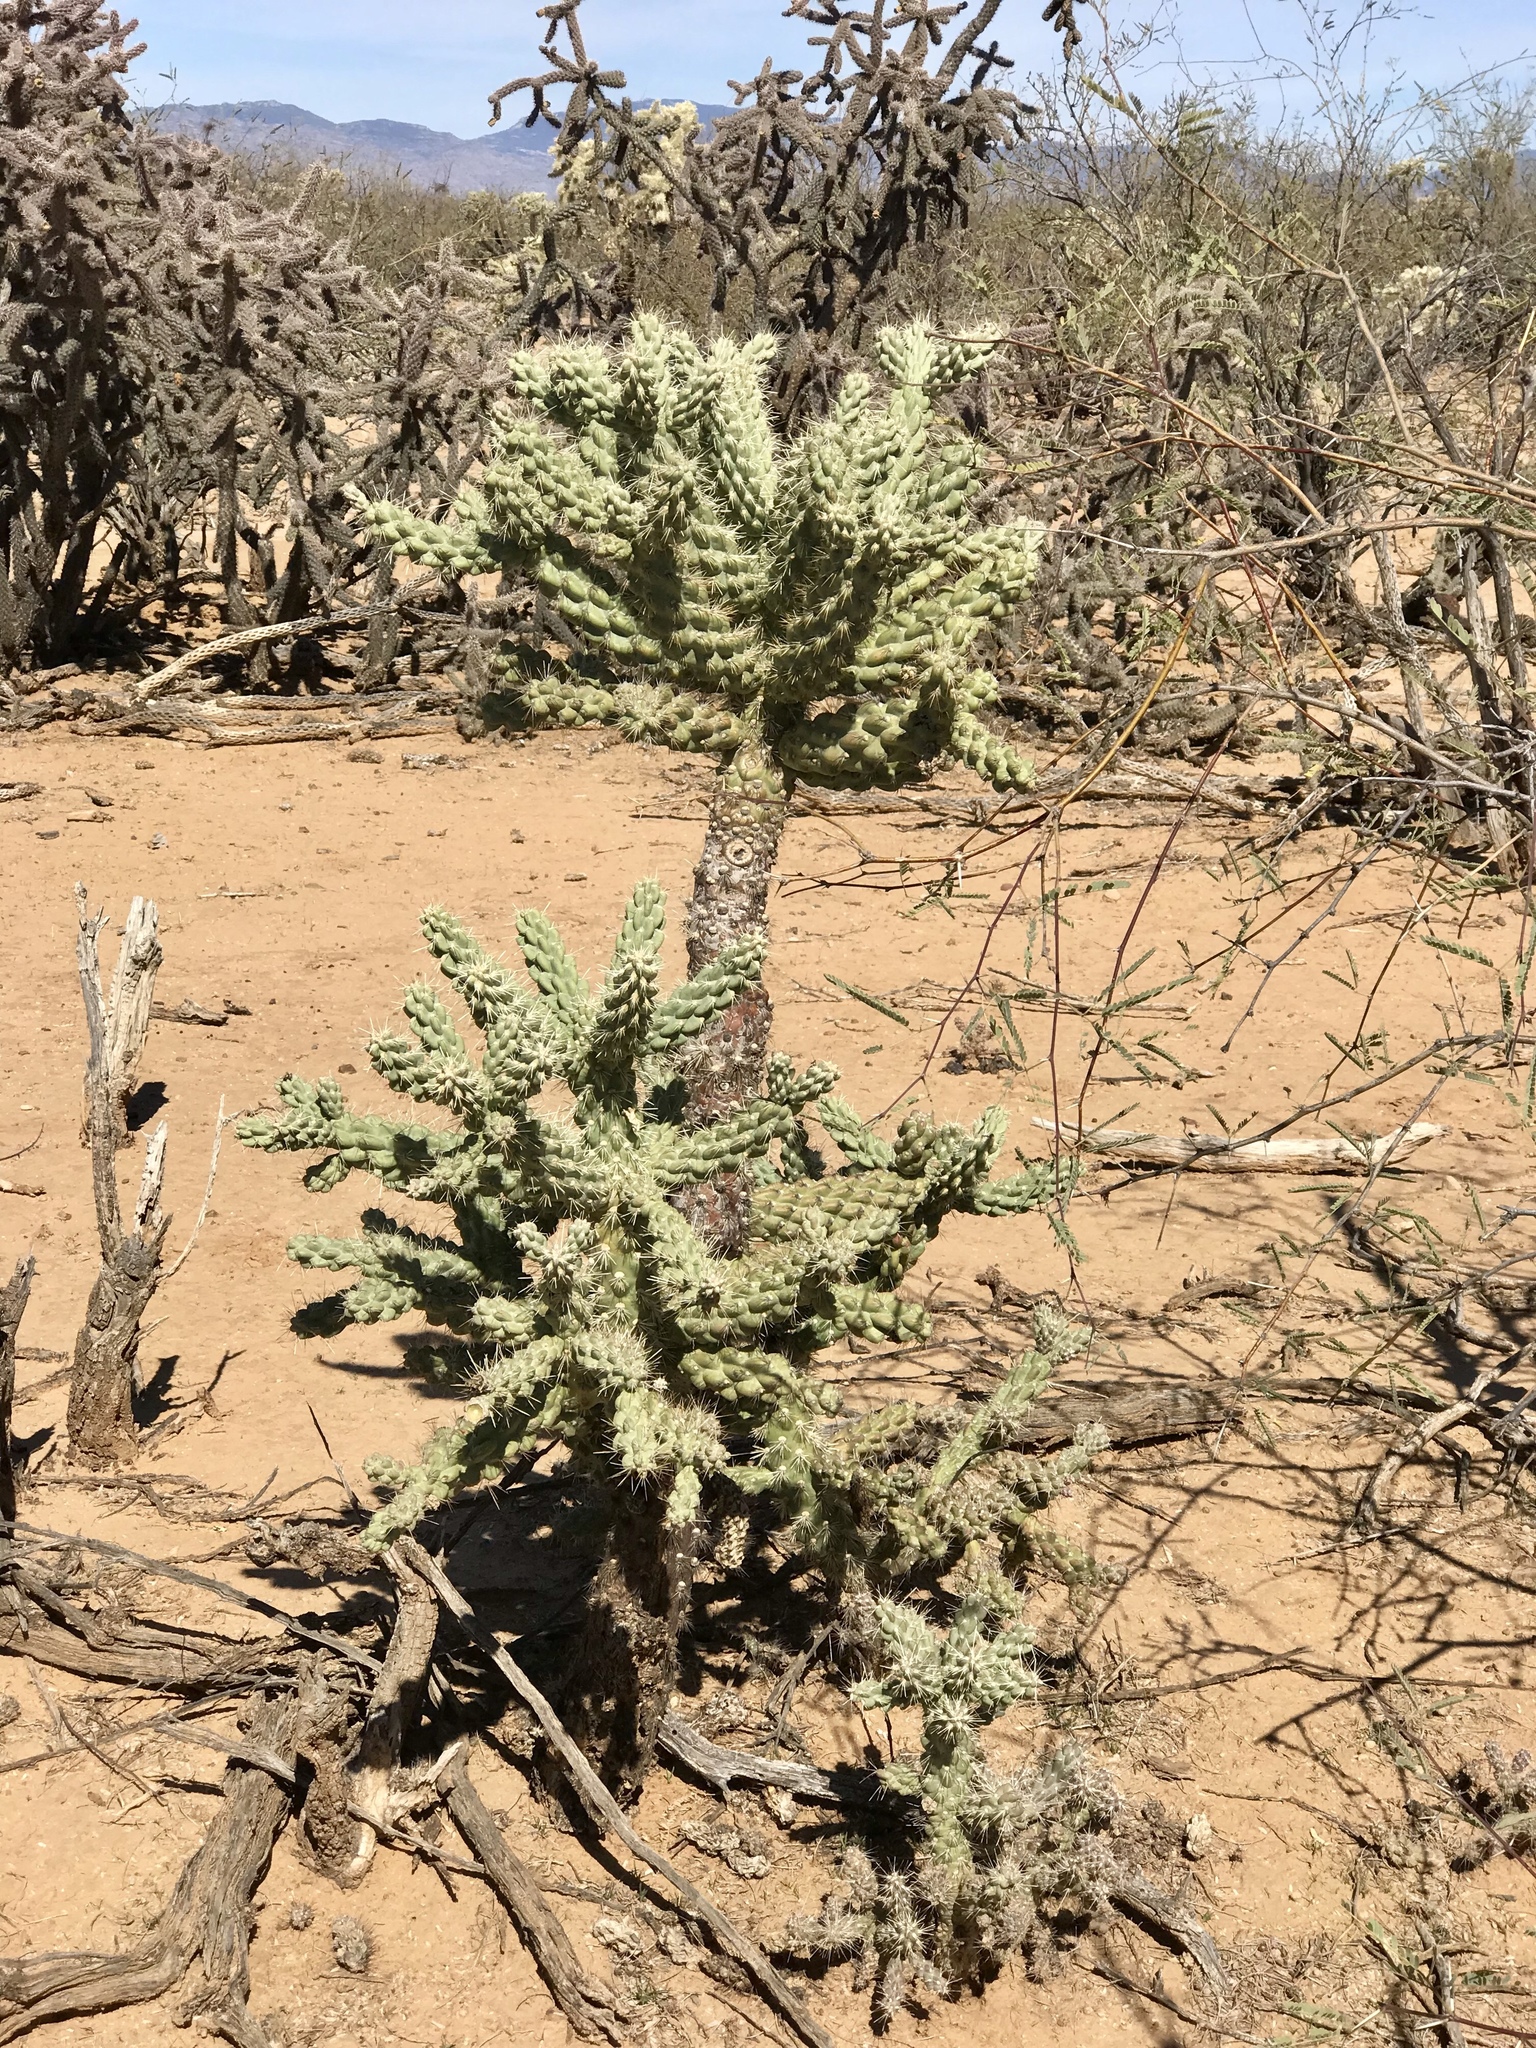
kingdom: Plantae
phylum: Tracheophyta
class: Magnoliopsida
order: Caryophyllales
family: Cactaceae
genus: Cylindropuntia
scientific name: Cylindropuntia fulgida
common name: Jumping cholla
